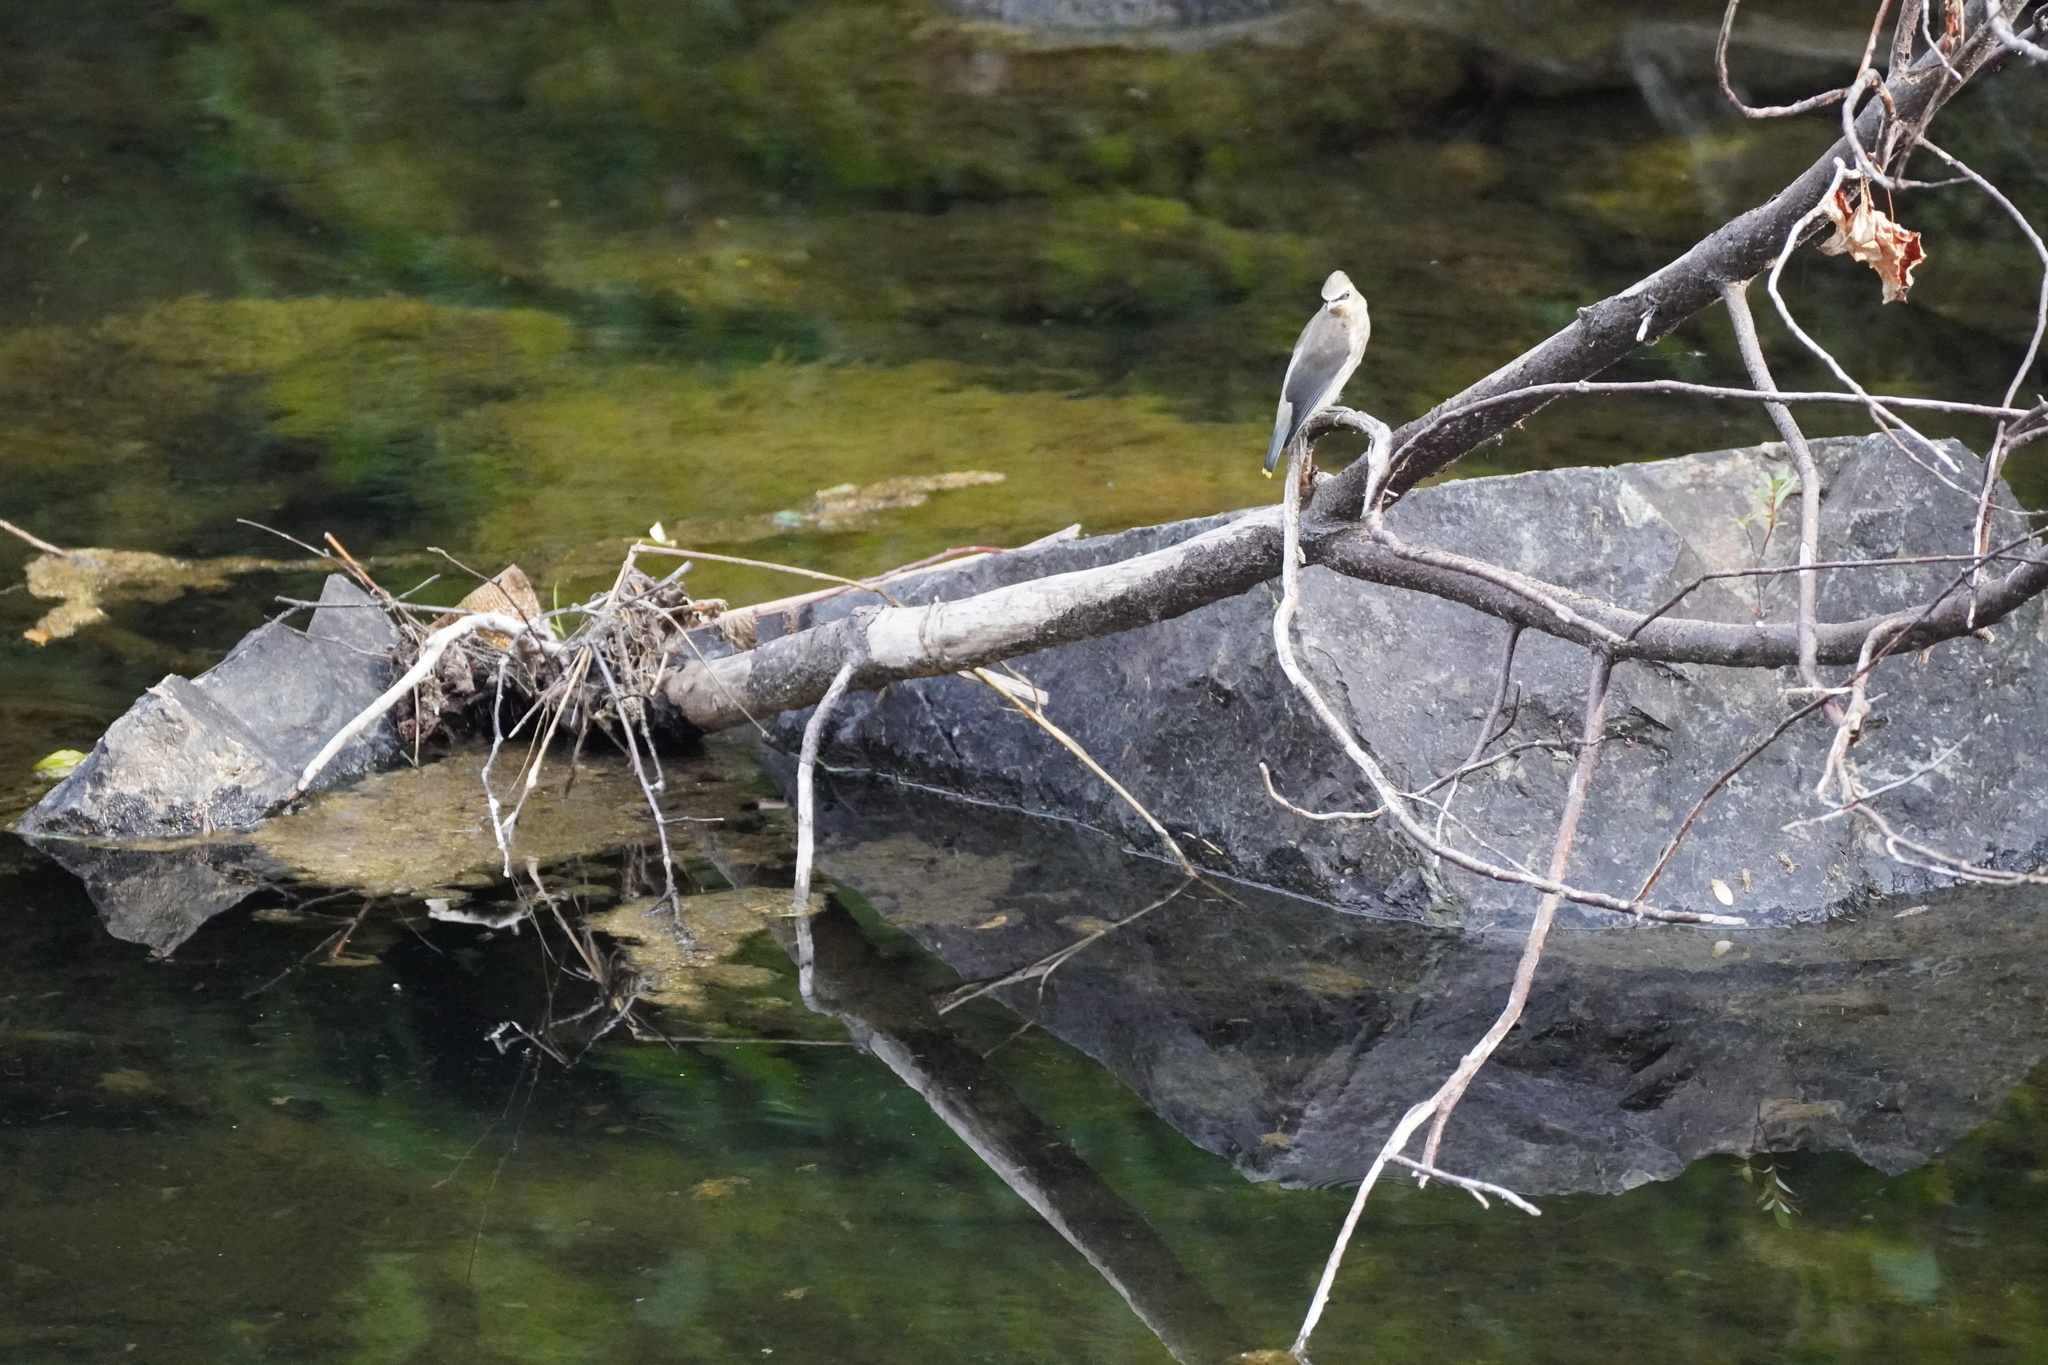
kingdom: Animalia
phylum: Chordata
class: Aves
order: Passeriformes
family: Bombycillidae
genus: Bombycilla
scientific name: Bombycilla cedrorum
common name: Cedar waxwing
